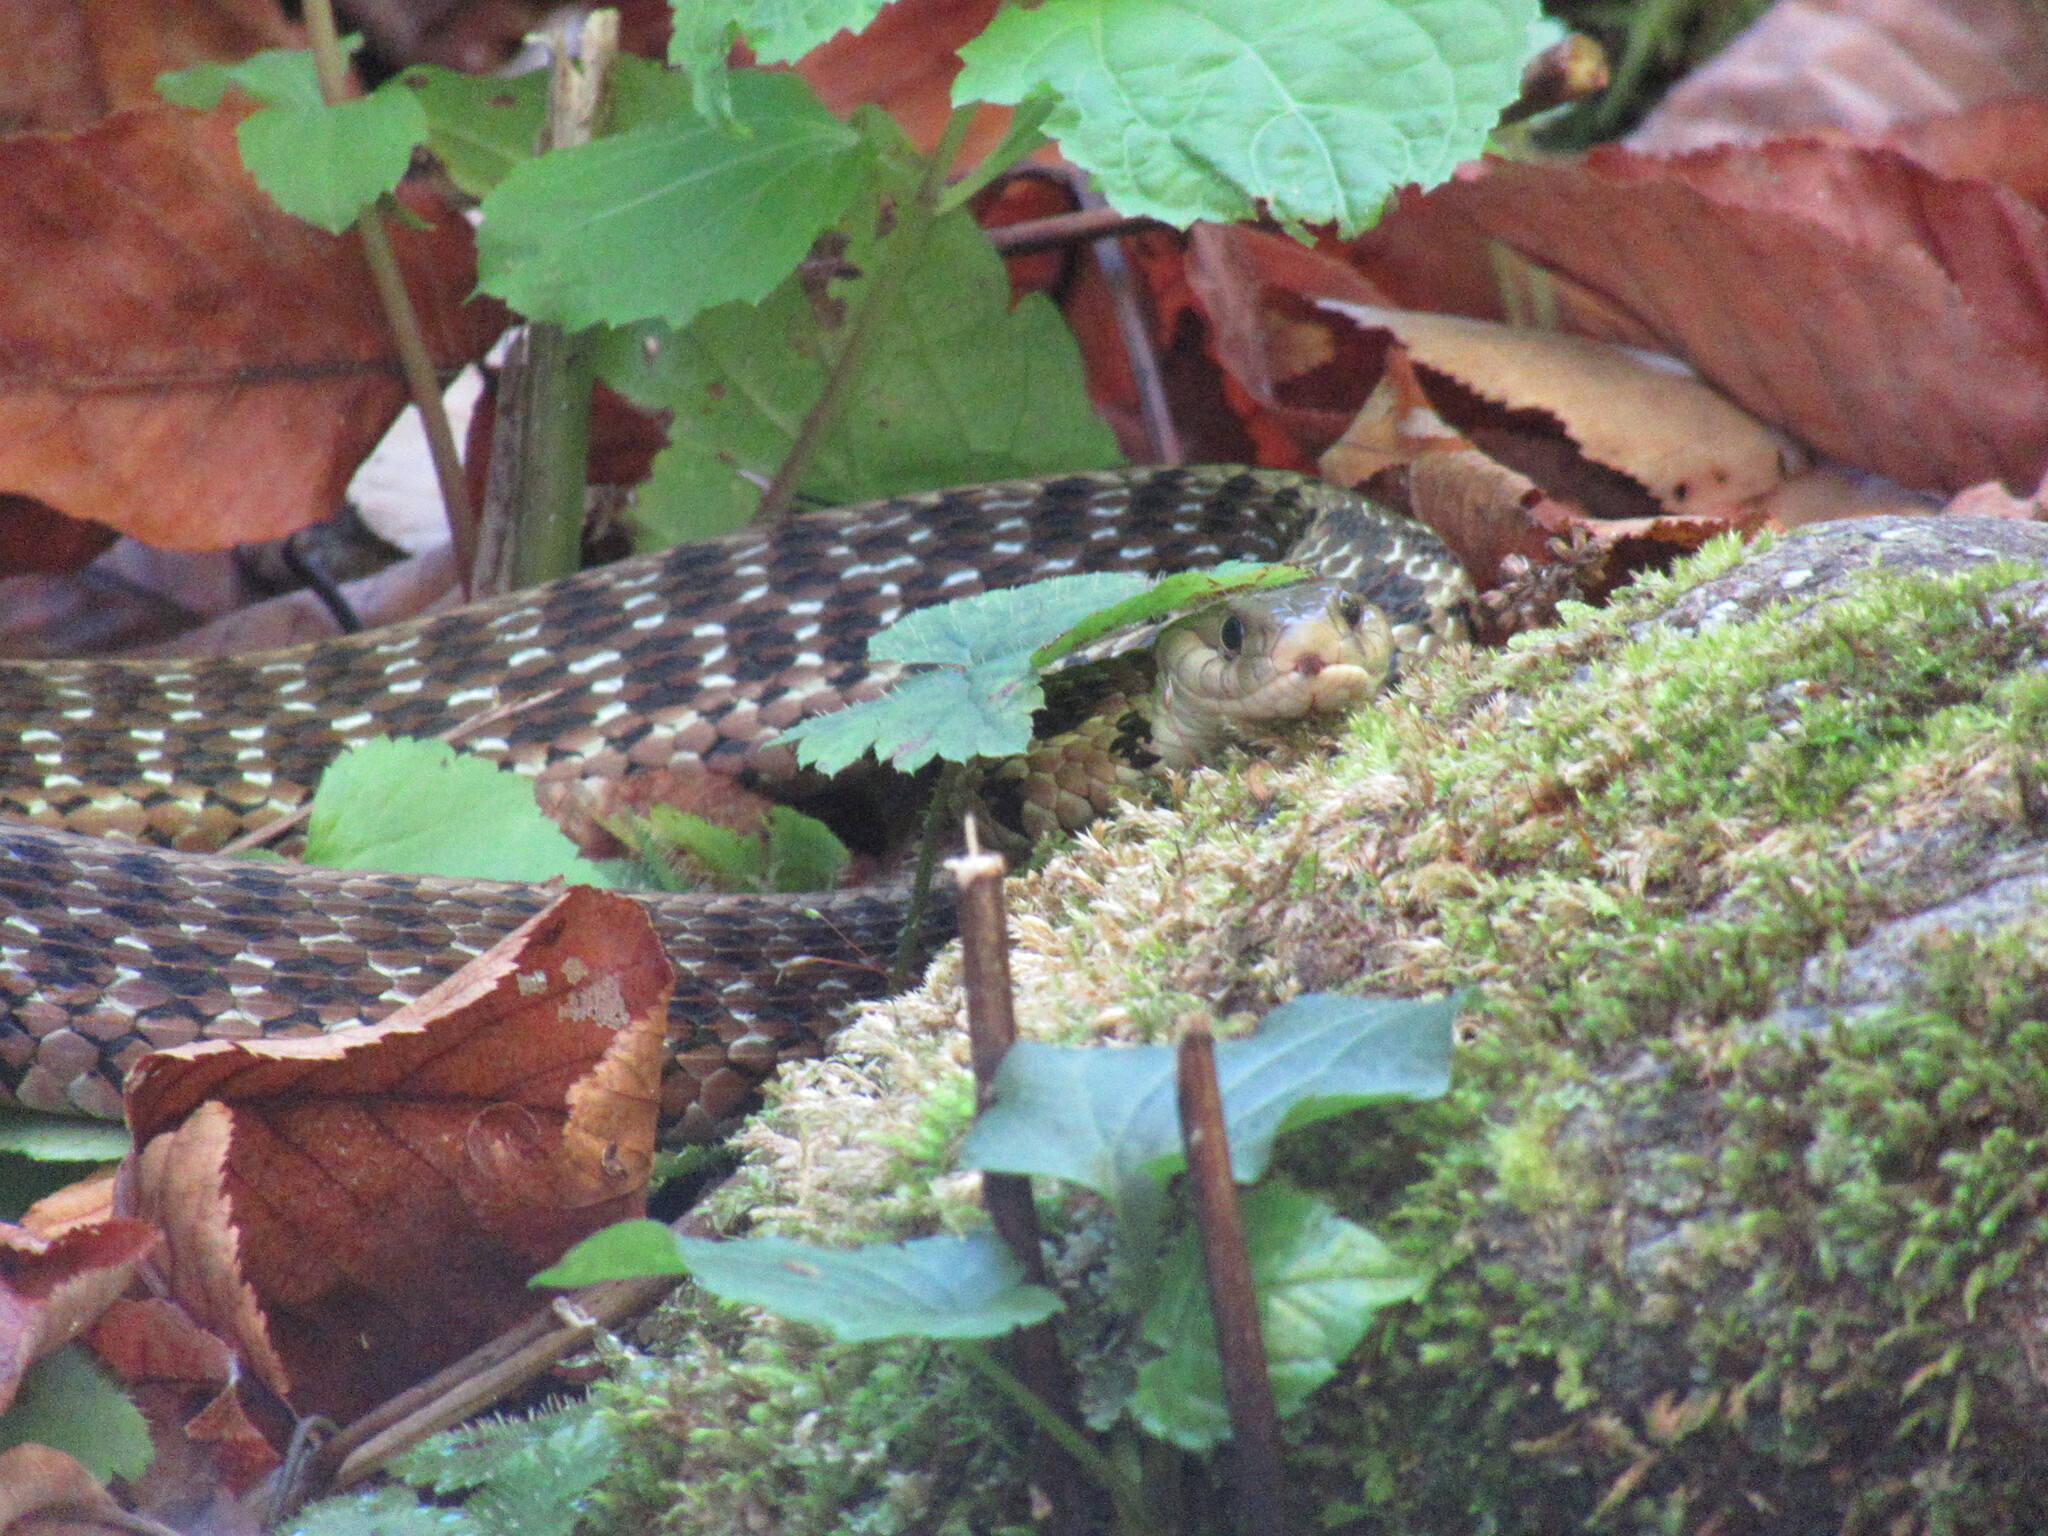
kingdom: Animalia
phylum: Chordata
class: Squamata
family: Colubridae
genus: Thamnophis
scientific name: Thamnophis sirtalis
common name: Common garter snake
